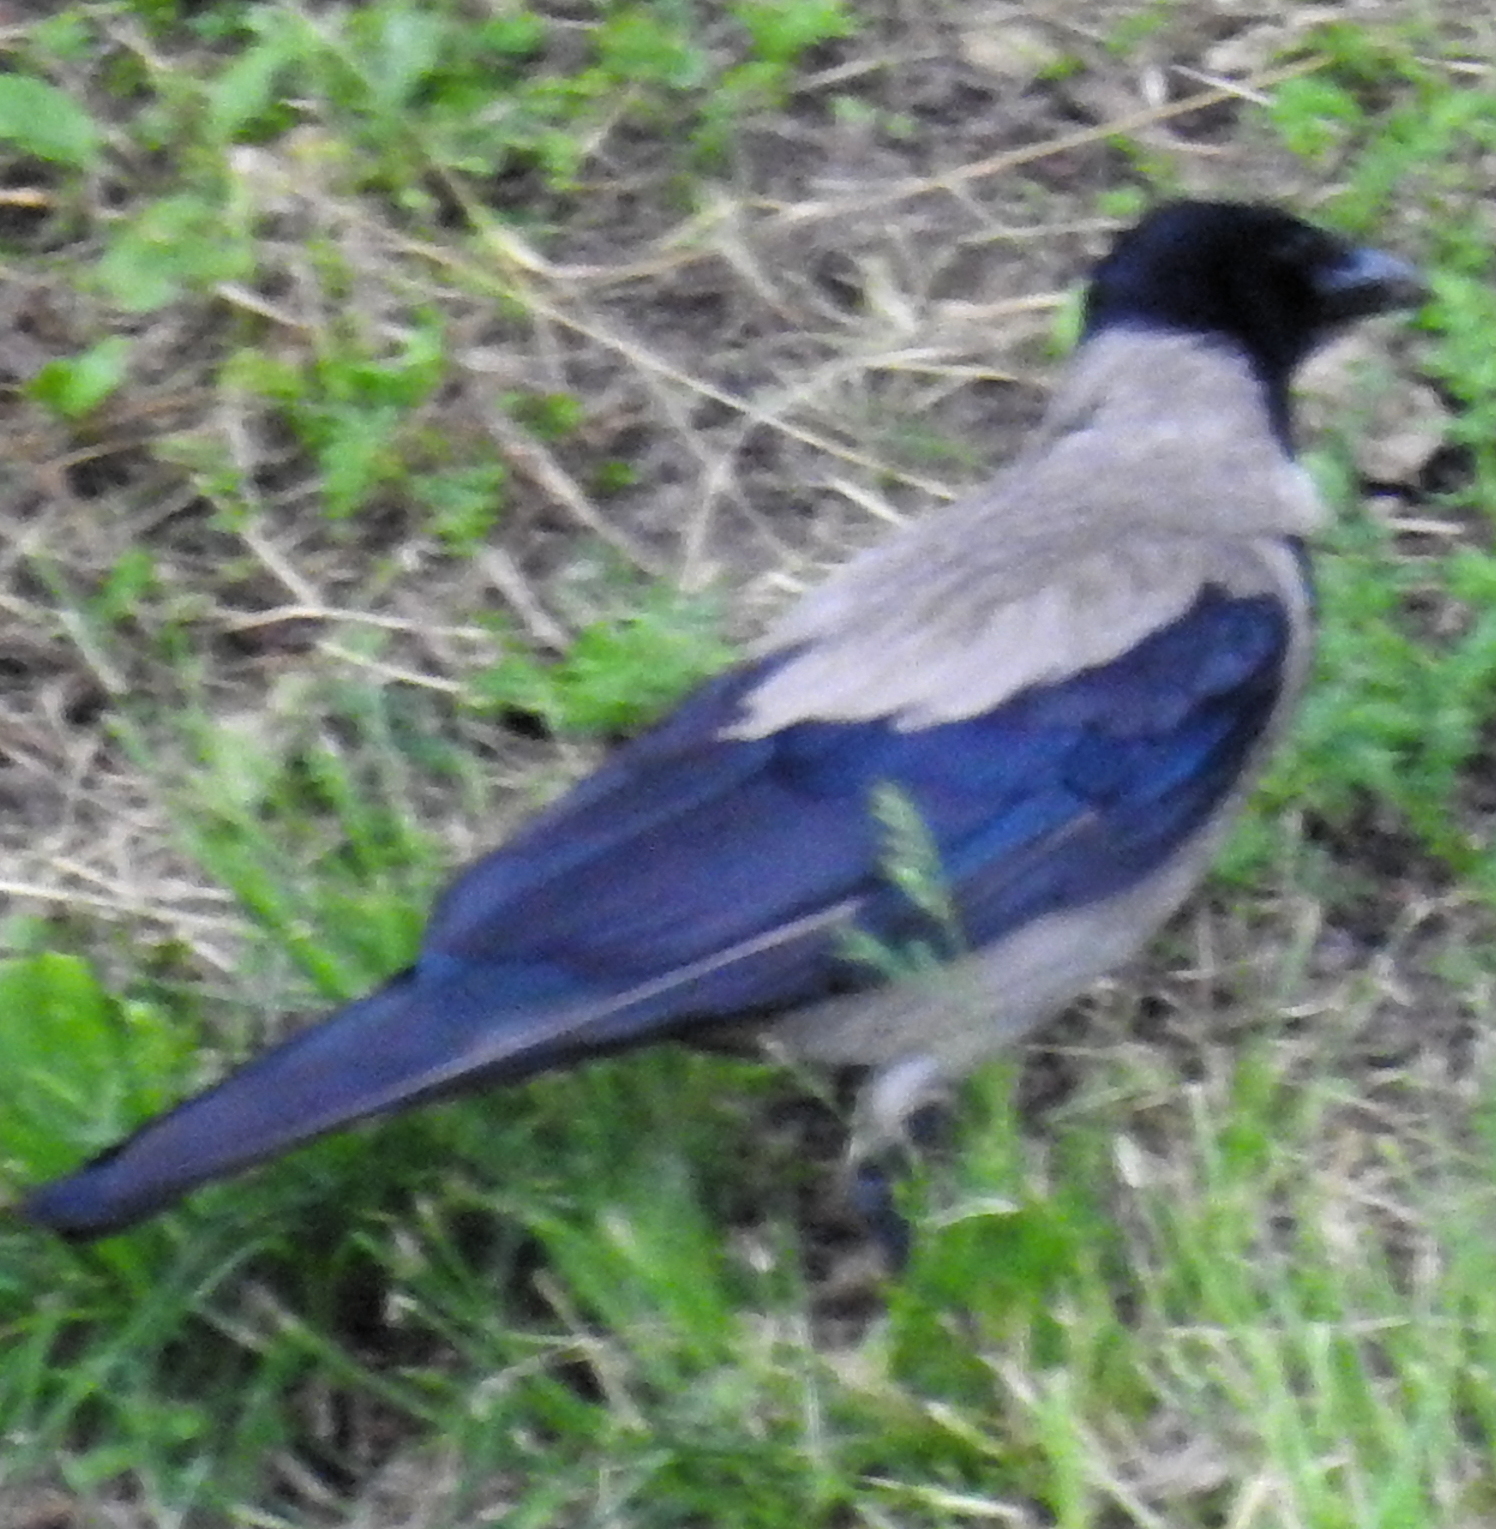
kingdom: Animalia
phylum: Chordata
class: Aves
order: Passeriformes
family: Corvidae
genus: Corvus
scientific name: Corvus cornix
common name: Hooded crow
